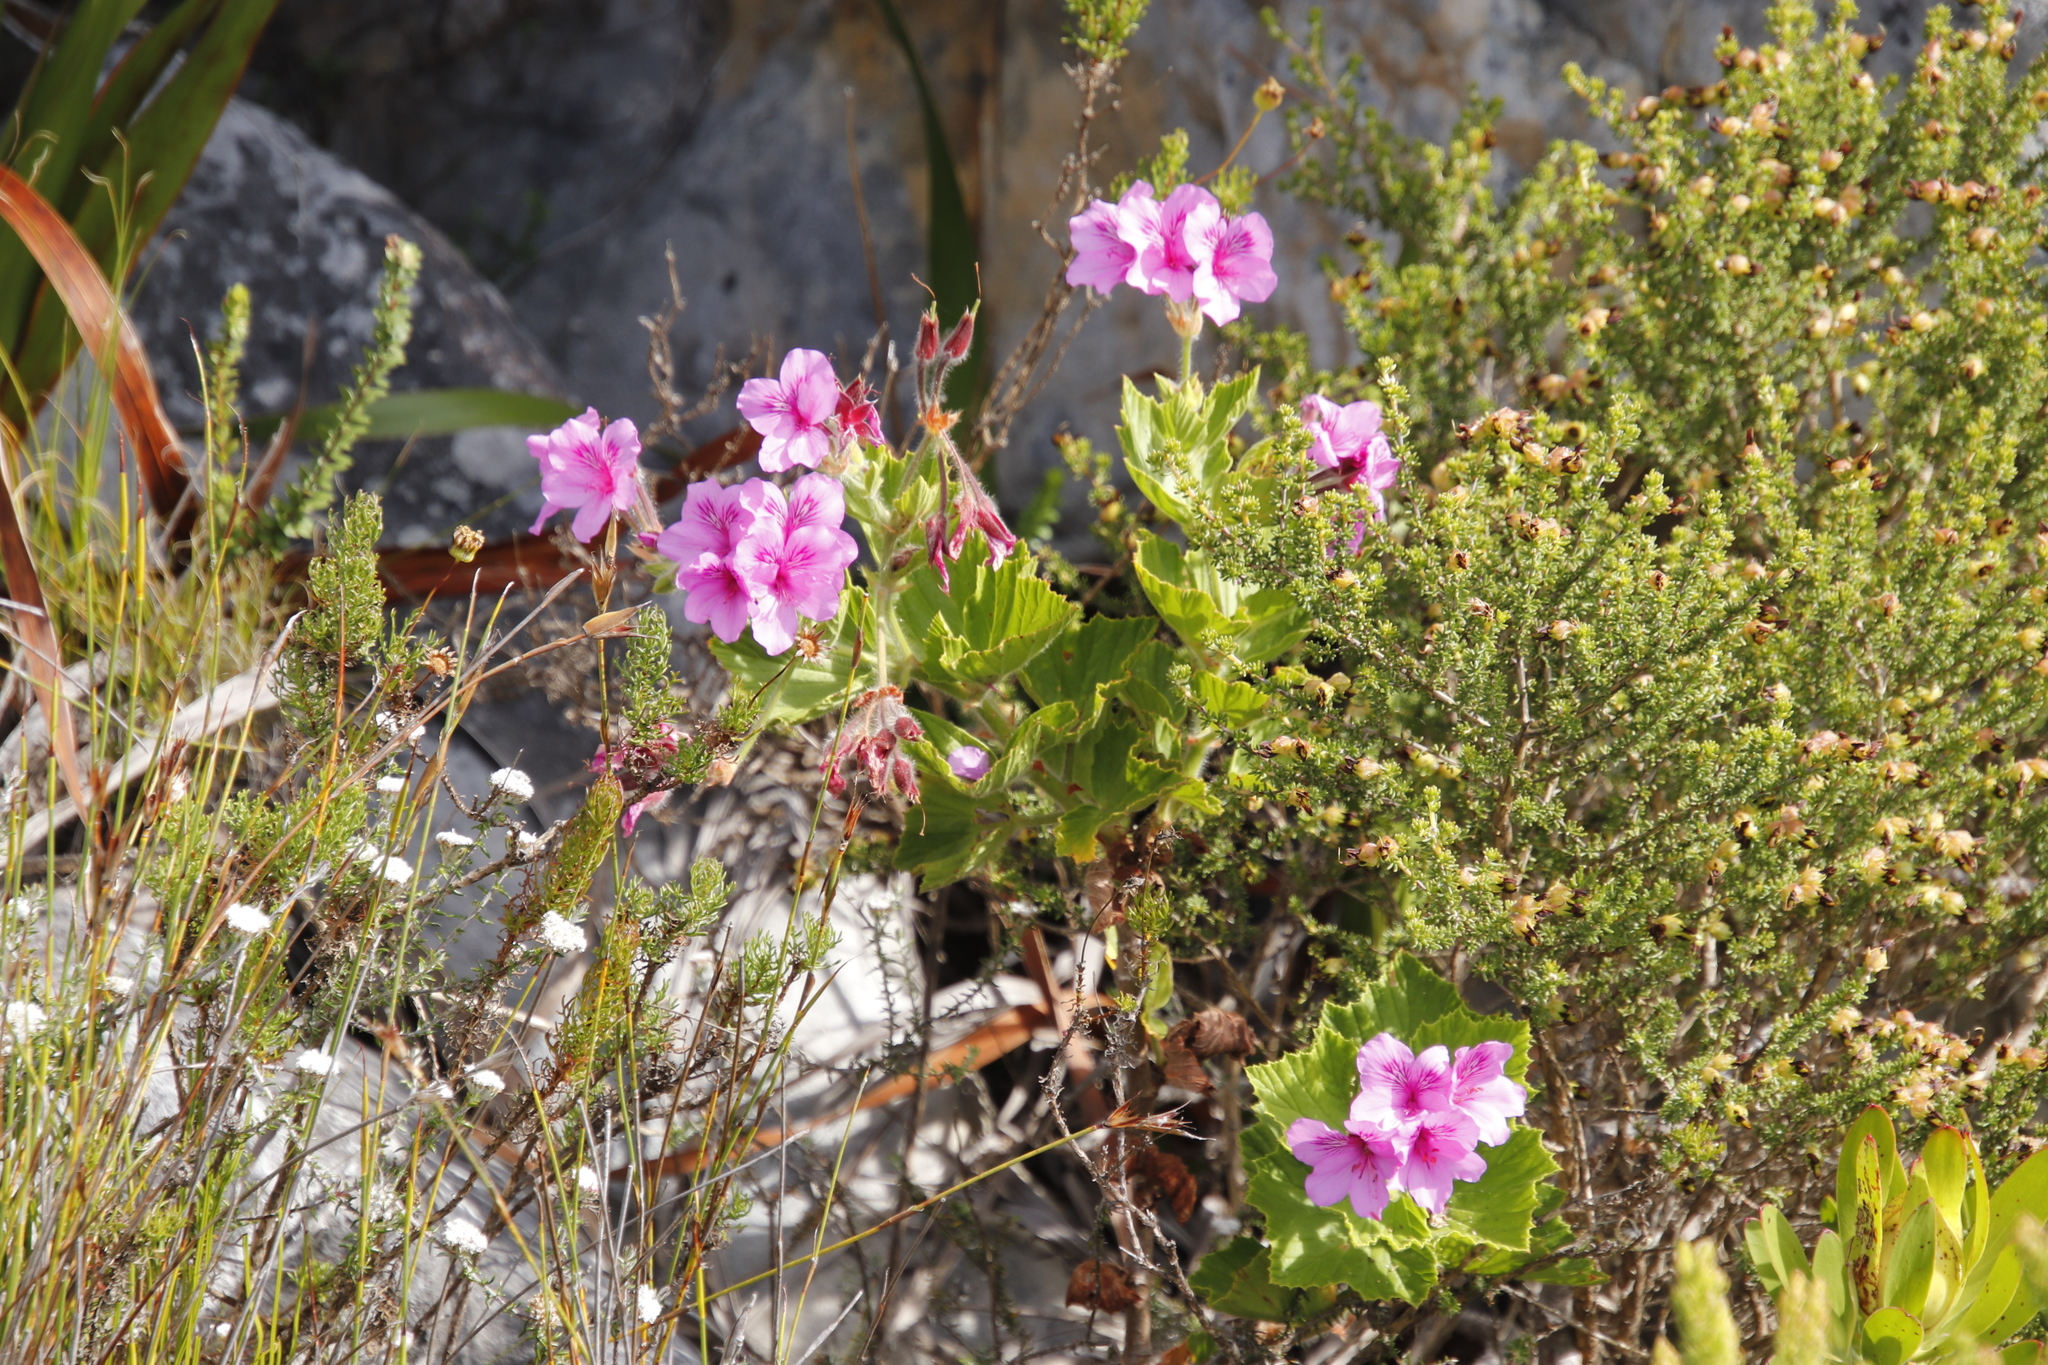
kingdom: Plantae
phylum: Tracheophyta
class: Magnoliopsida
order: Geraniales
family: Geraniaceae
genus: Pelargonium
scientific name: Pelargonium cucullatum
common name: Tree pelargonium
